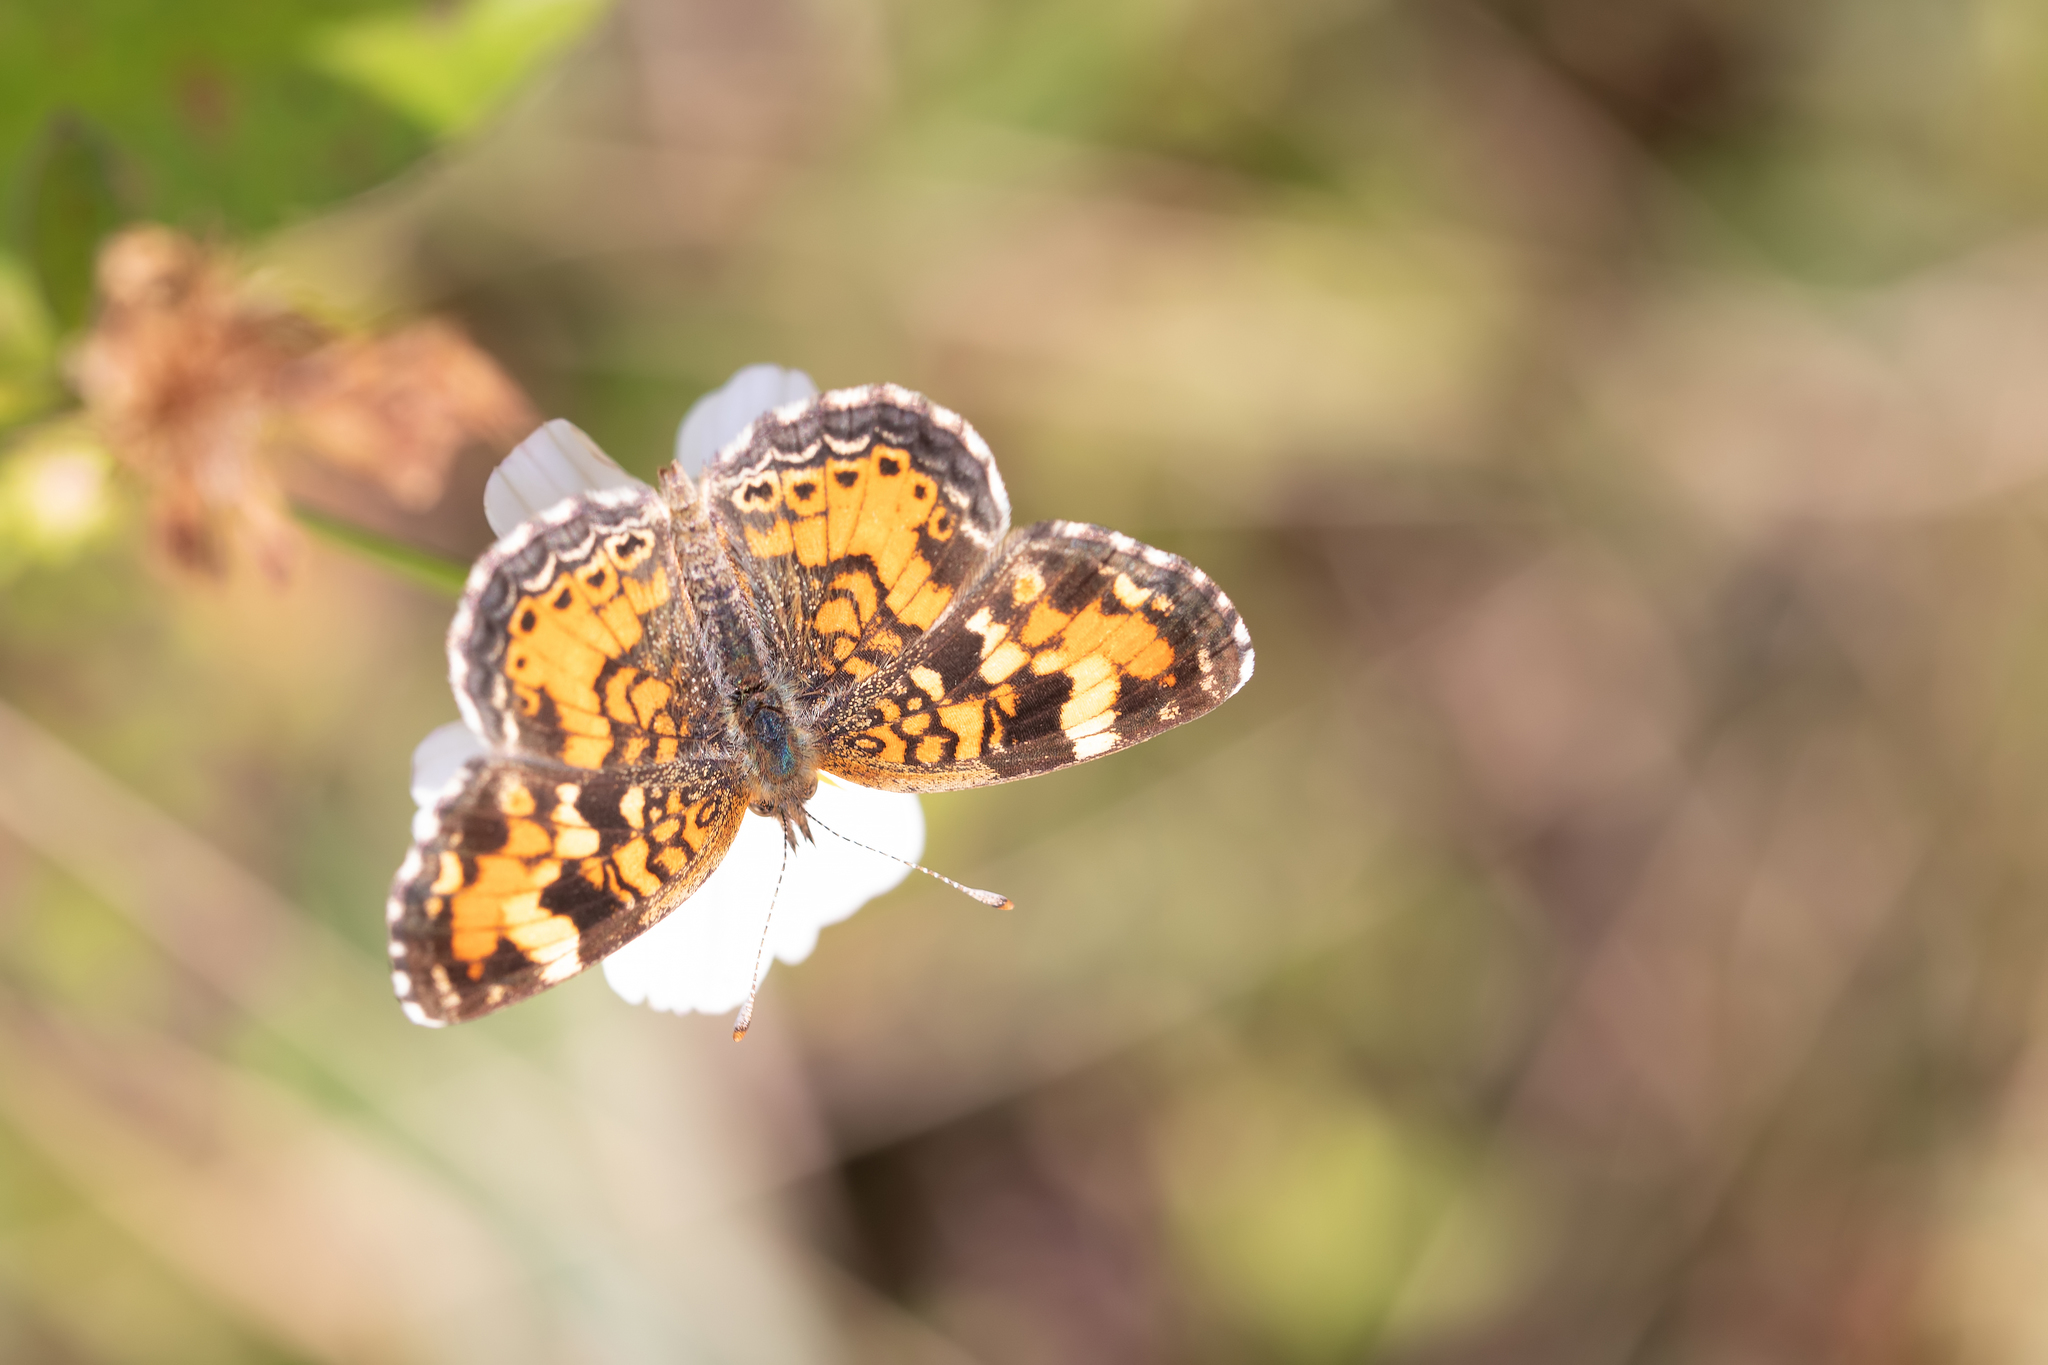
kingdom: Animalia
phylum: Arthropoda
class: Insecta
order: Lepidoptera
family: Nymphalidae
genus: Phyciodes
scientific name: Phyciodes phaon
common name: Phaon crescent
